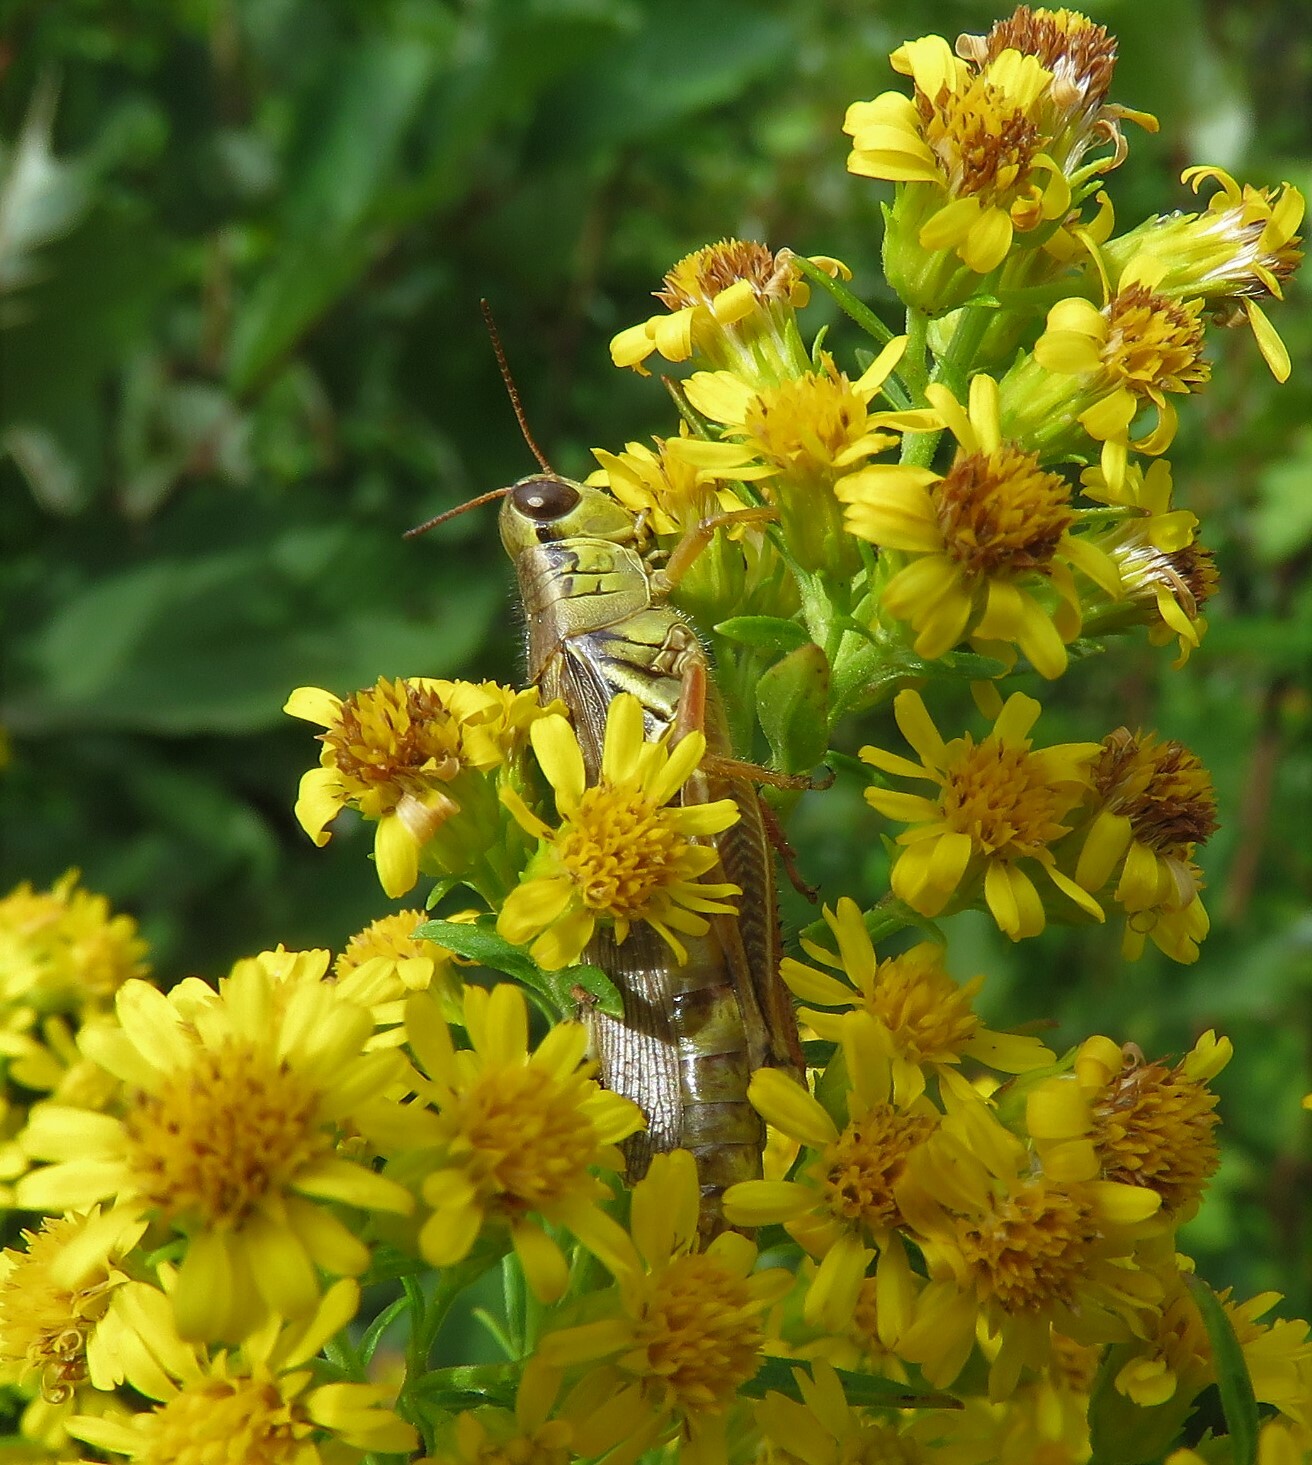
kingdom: Animalia
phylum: Arthropoda
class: Insecta
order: Orthoptera
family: Acrididae
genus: Melanoplus
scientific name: Melanoplus femurrubrum
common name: Red-legged grasshopper
